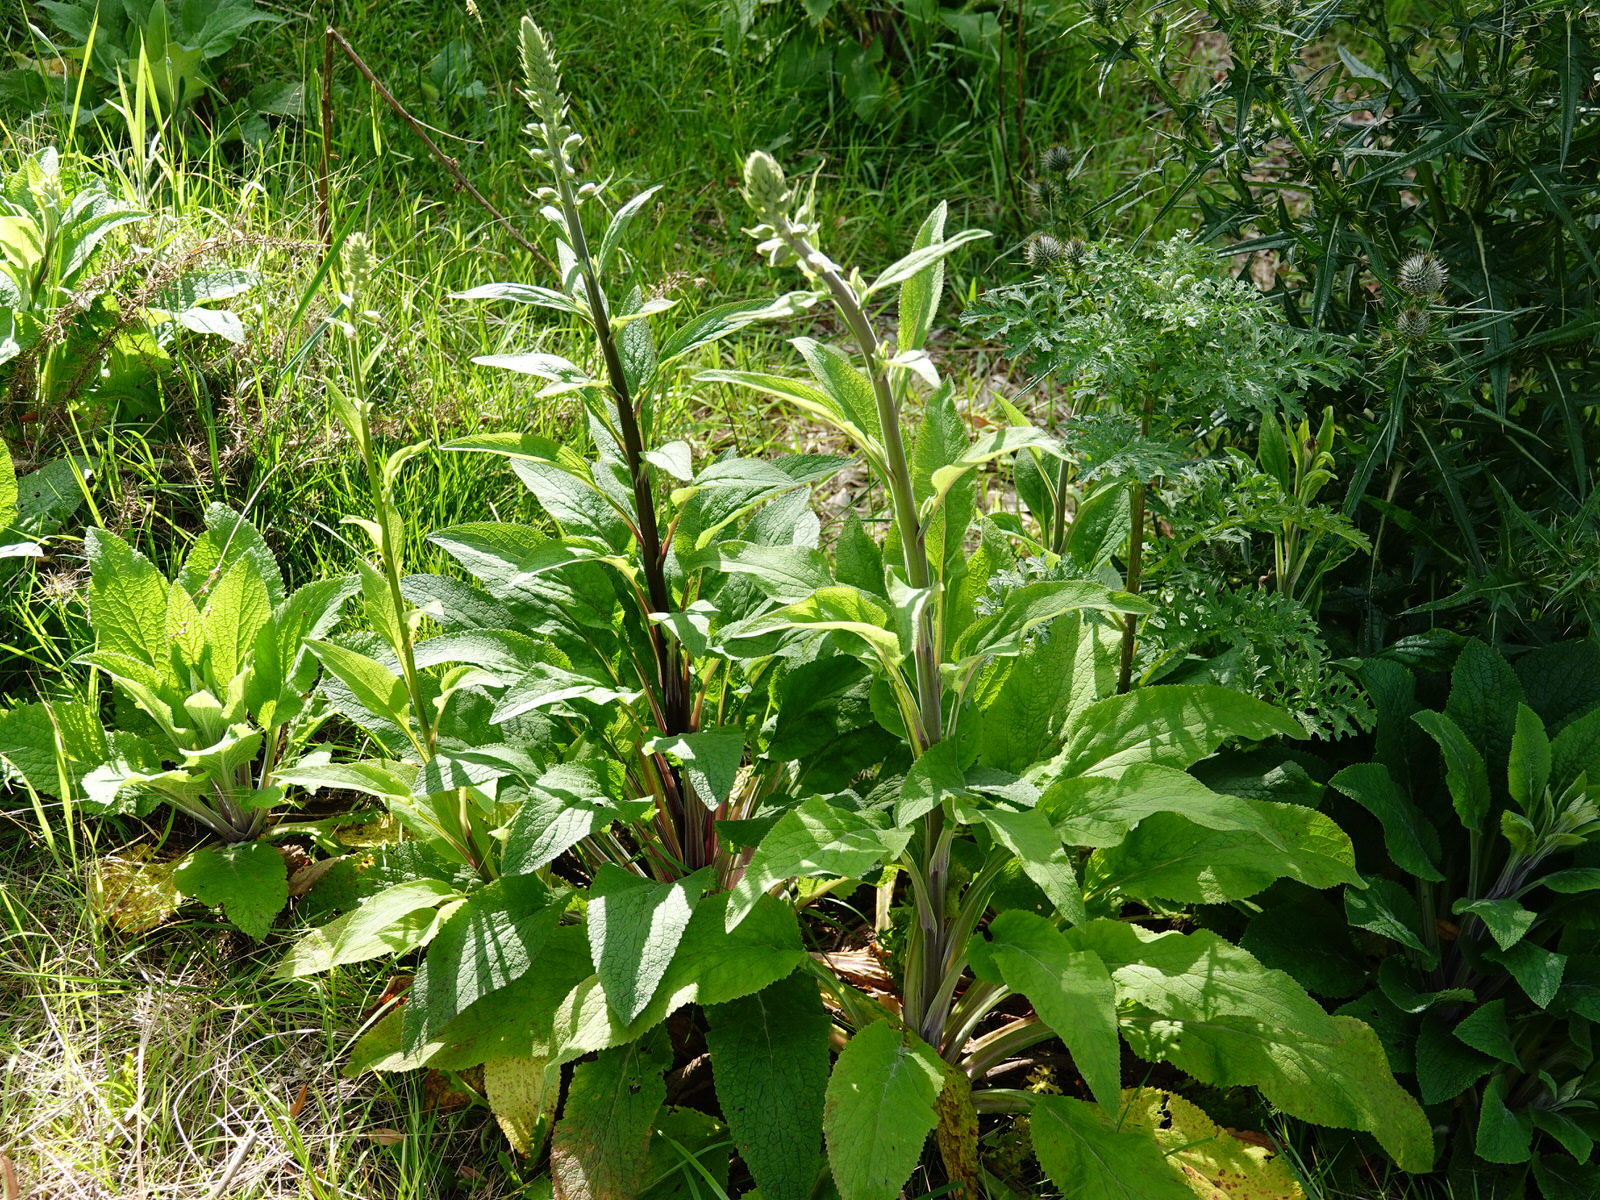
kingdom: Plantae
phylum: Tracheophyta
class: Magnoliopsida
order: Lamiales
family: Plantaginaceae
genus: Digitalis
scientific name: Digitalis purpurea
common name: Foxglove
